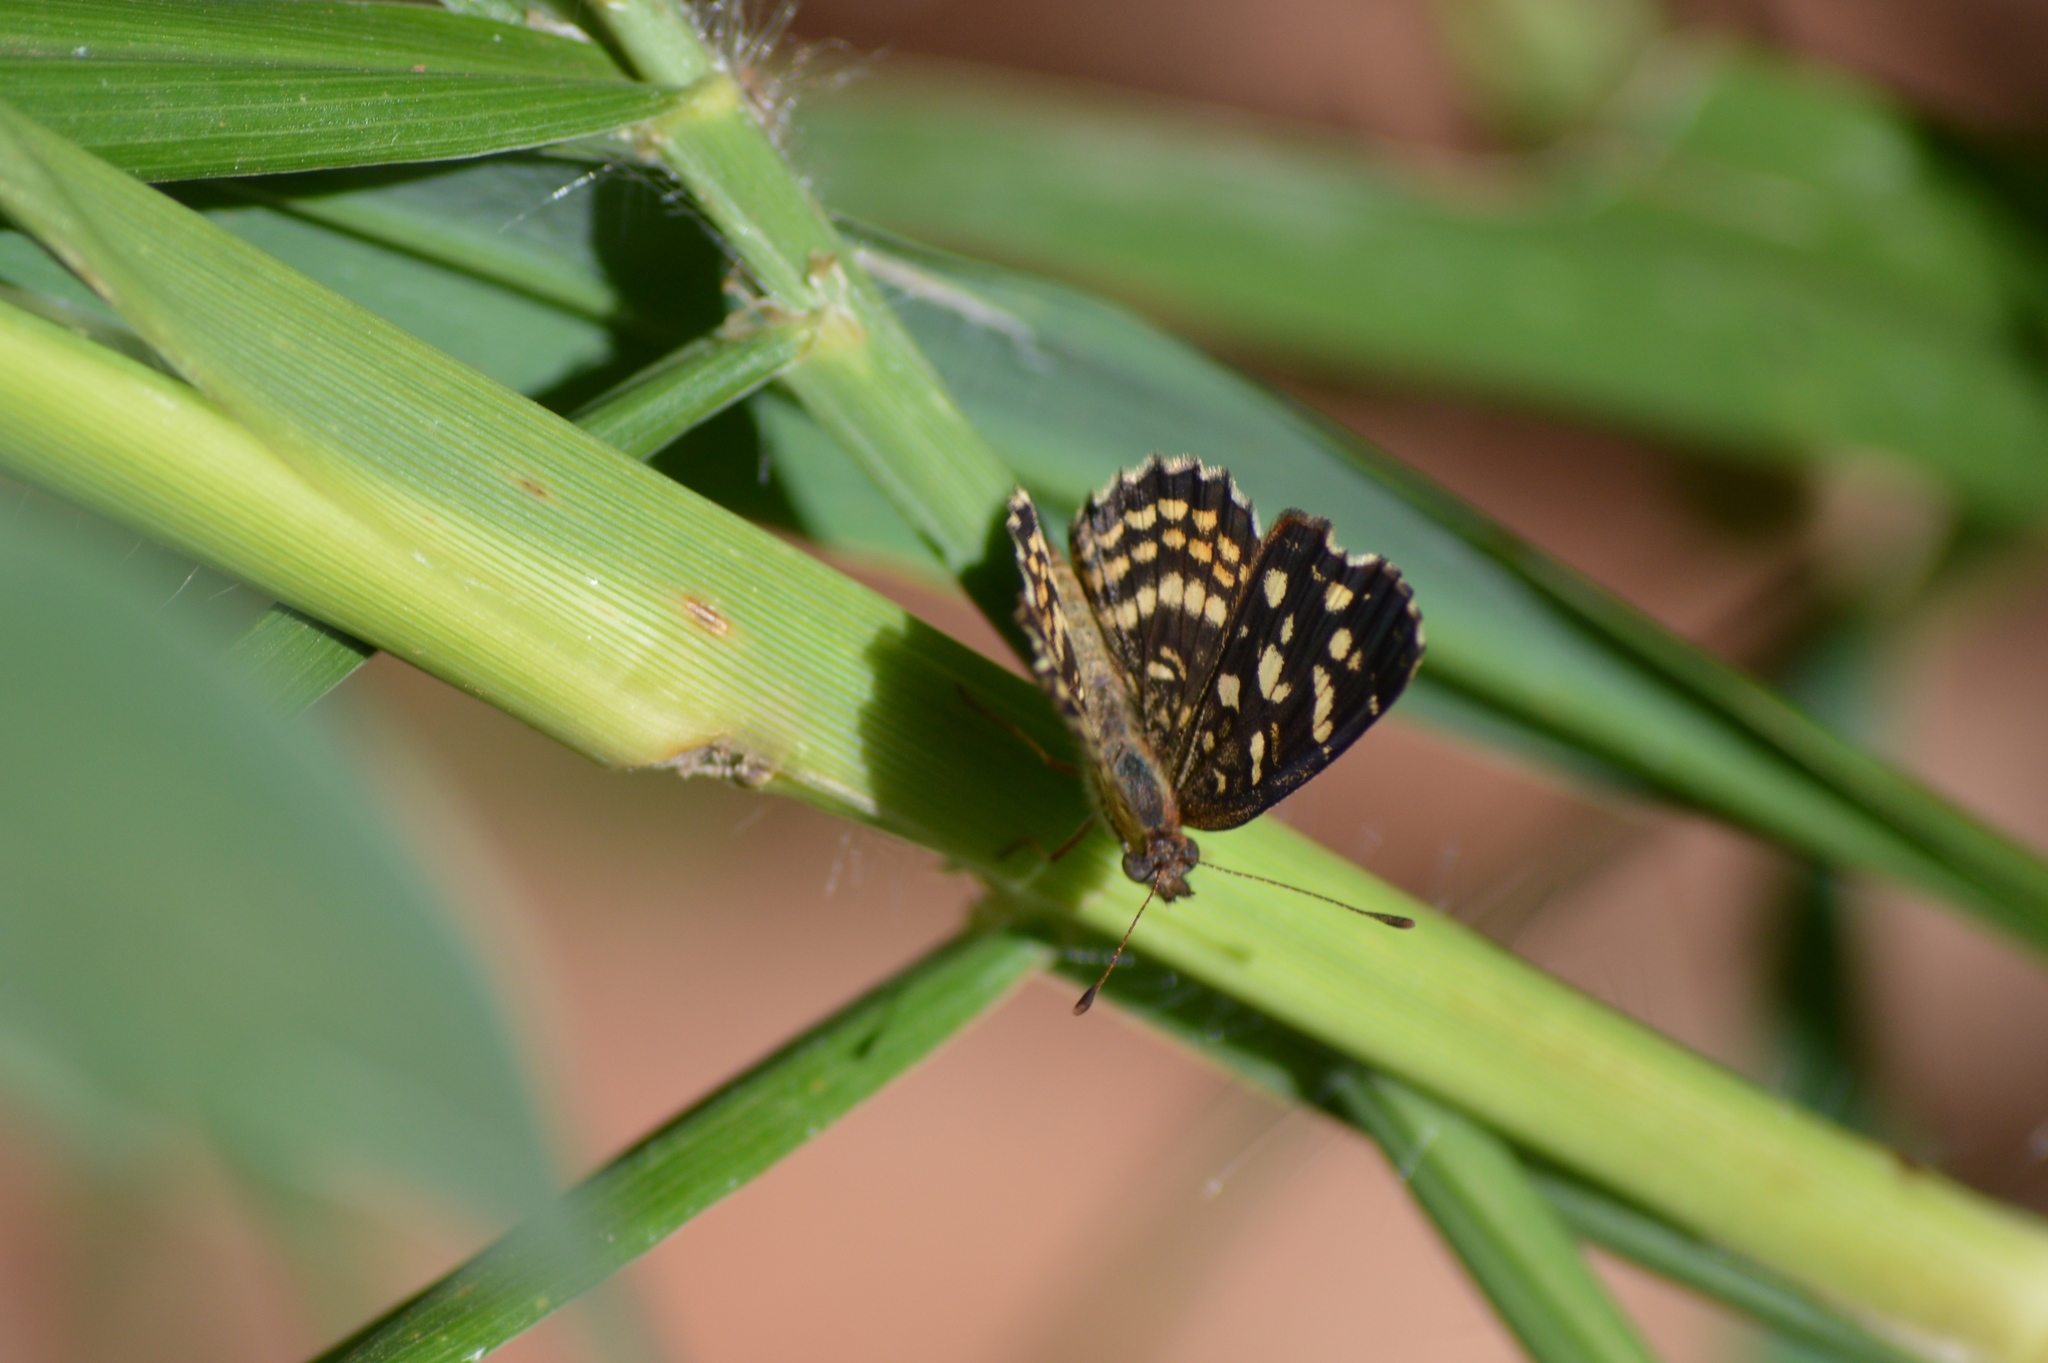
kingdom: Animalia
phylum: Arthropoda
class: Insecta
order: Lepidoptera
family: Nymphalidae
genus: Anthanassa
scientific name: Anthanassa hermas
